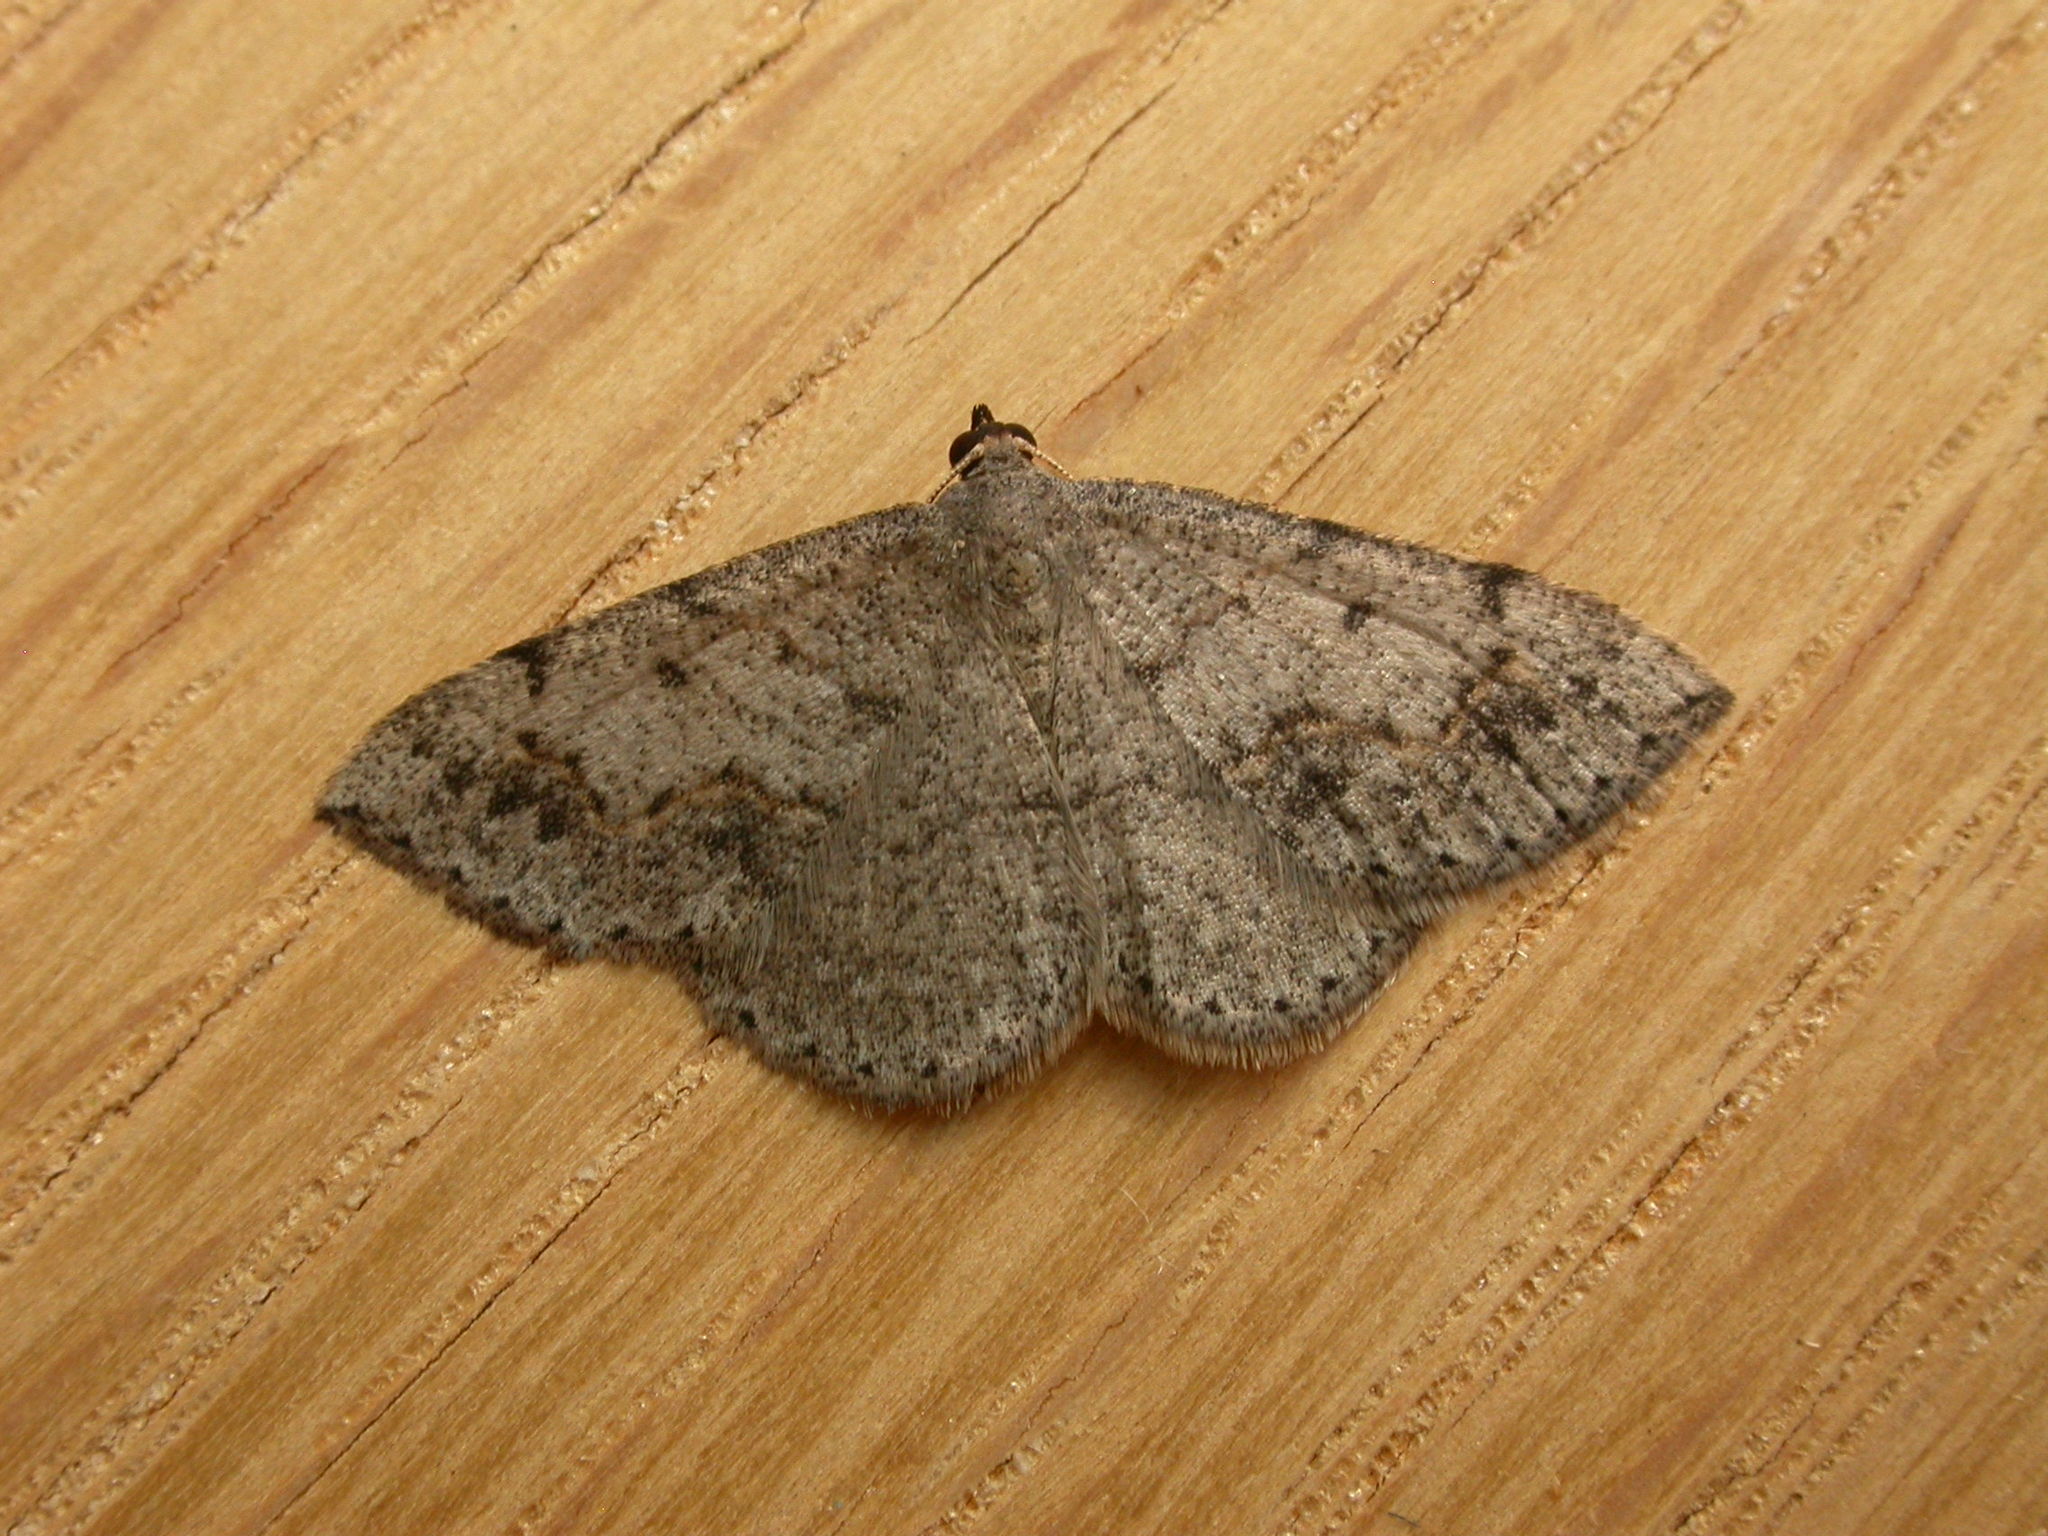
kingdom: Animalia
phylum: Arthropoda
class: Insecta
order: Lepidoptera
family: Geometridae
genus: Taxeotis
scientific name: Taxeotis intextata
